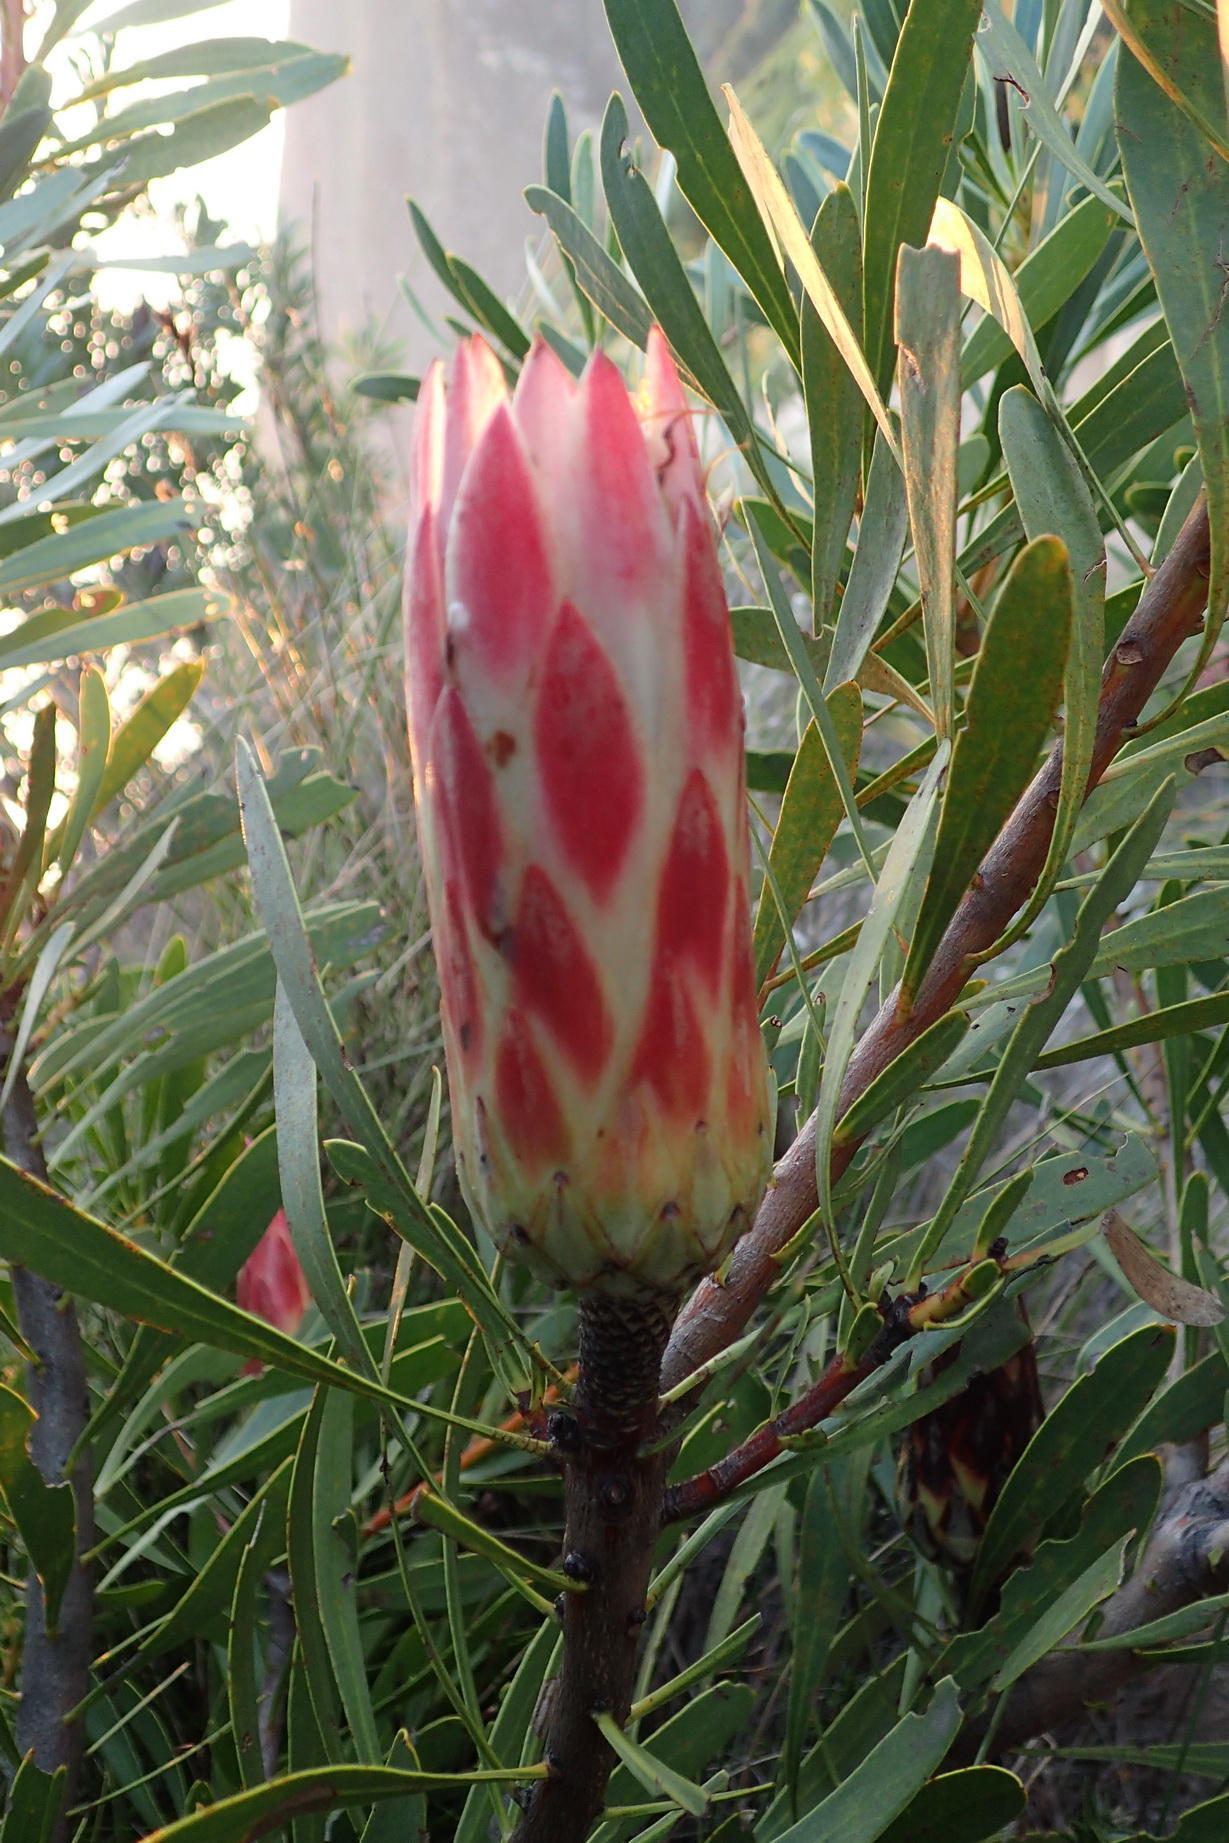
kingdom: Plantae
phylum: Tracheophyta
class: Magnoliopsida
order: Proteales
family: Proteaceae
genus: Protea
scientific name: Protea repens
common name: Sugarbush
